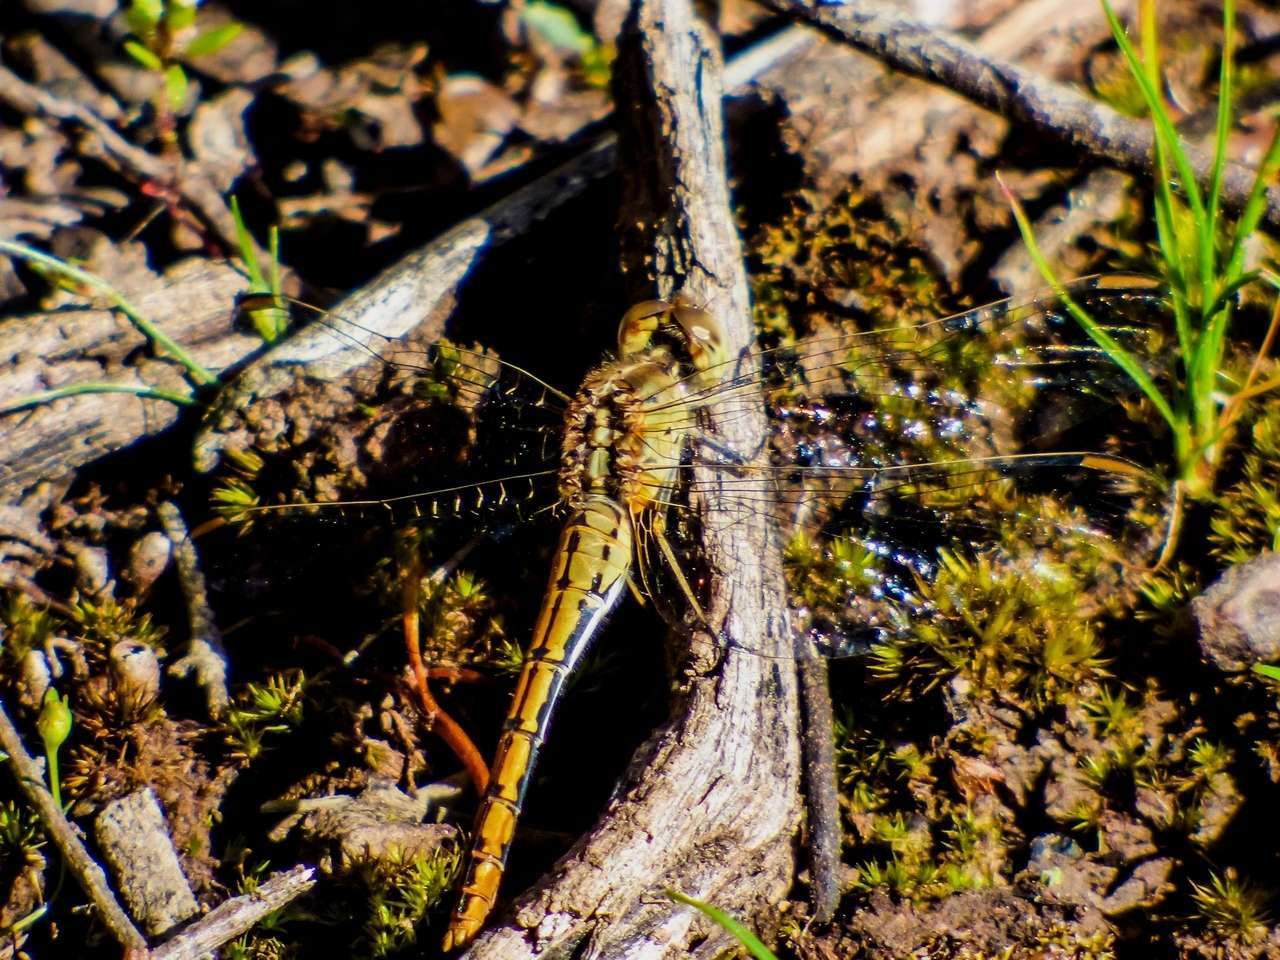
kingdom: Animalia
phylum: Arthropoda
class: Insecta
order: Odonata
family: Libellulidae
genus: Diplacodes
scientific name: Diplacodes bipunctata
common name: Red percher dragonfly
